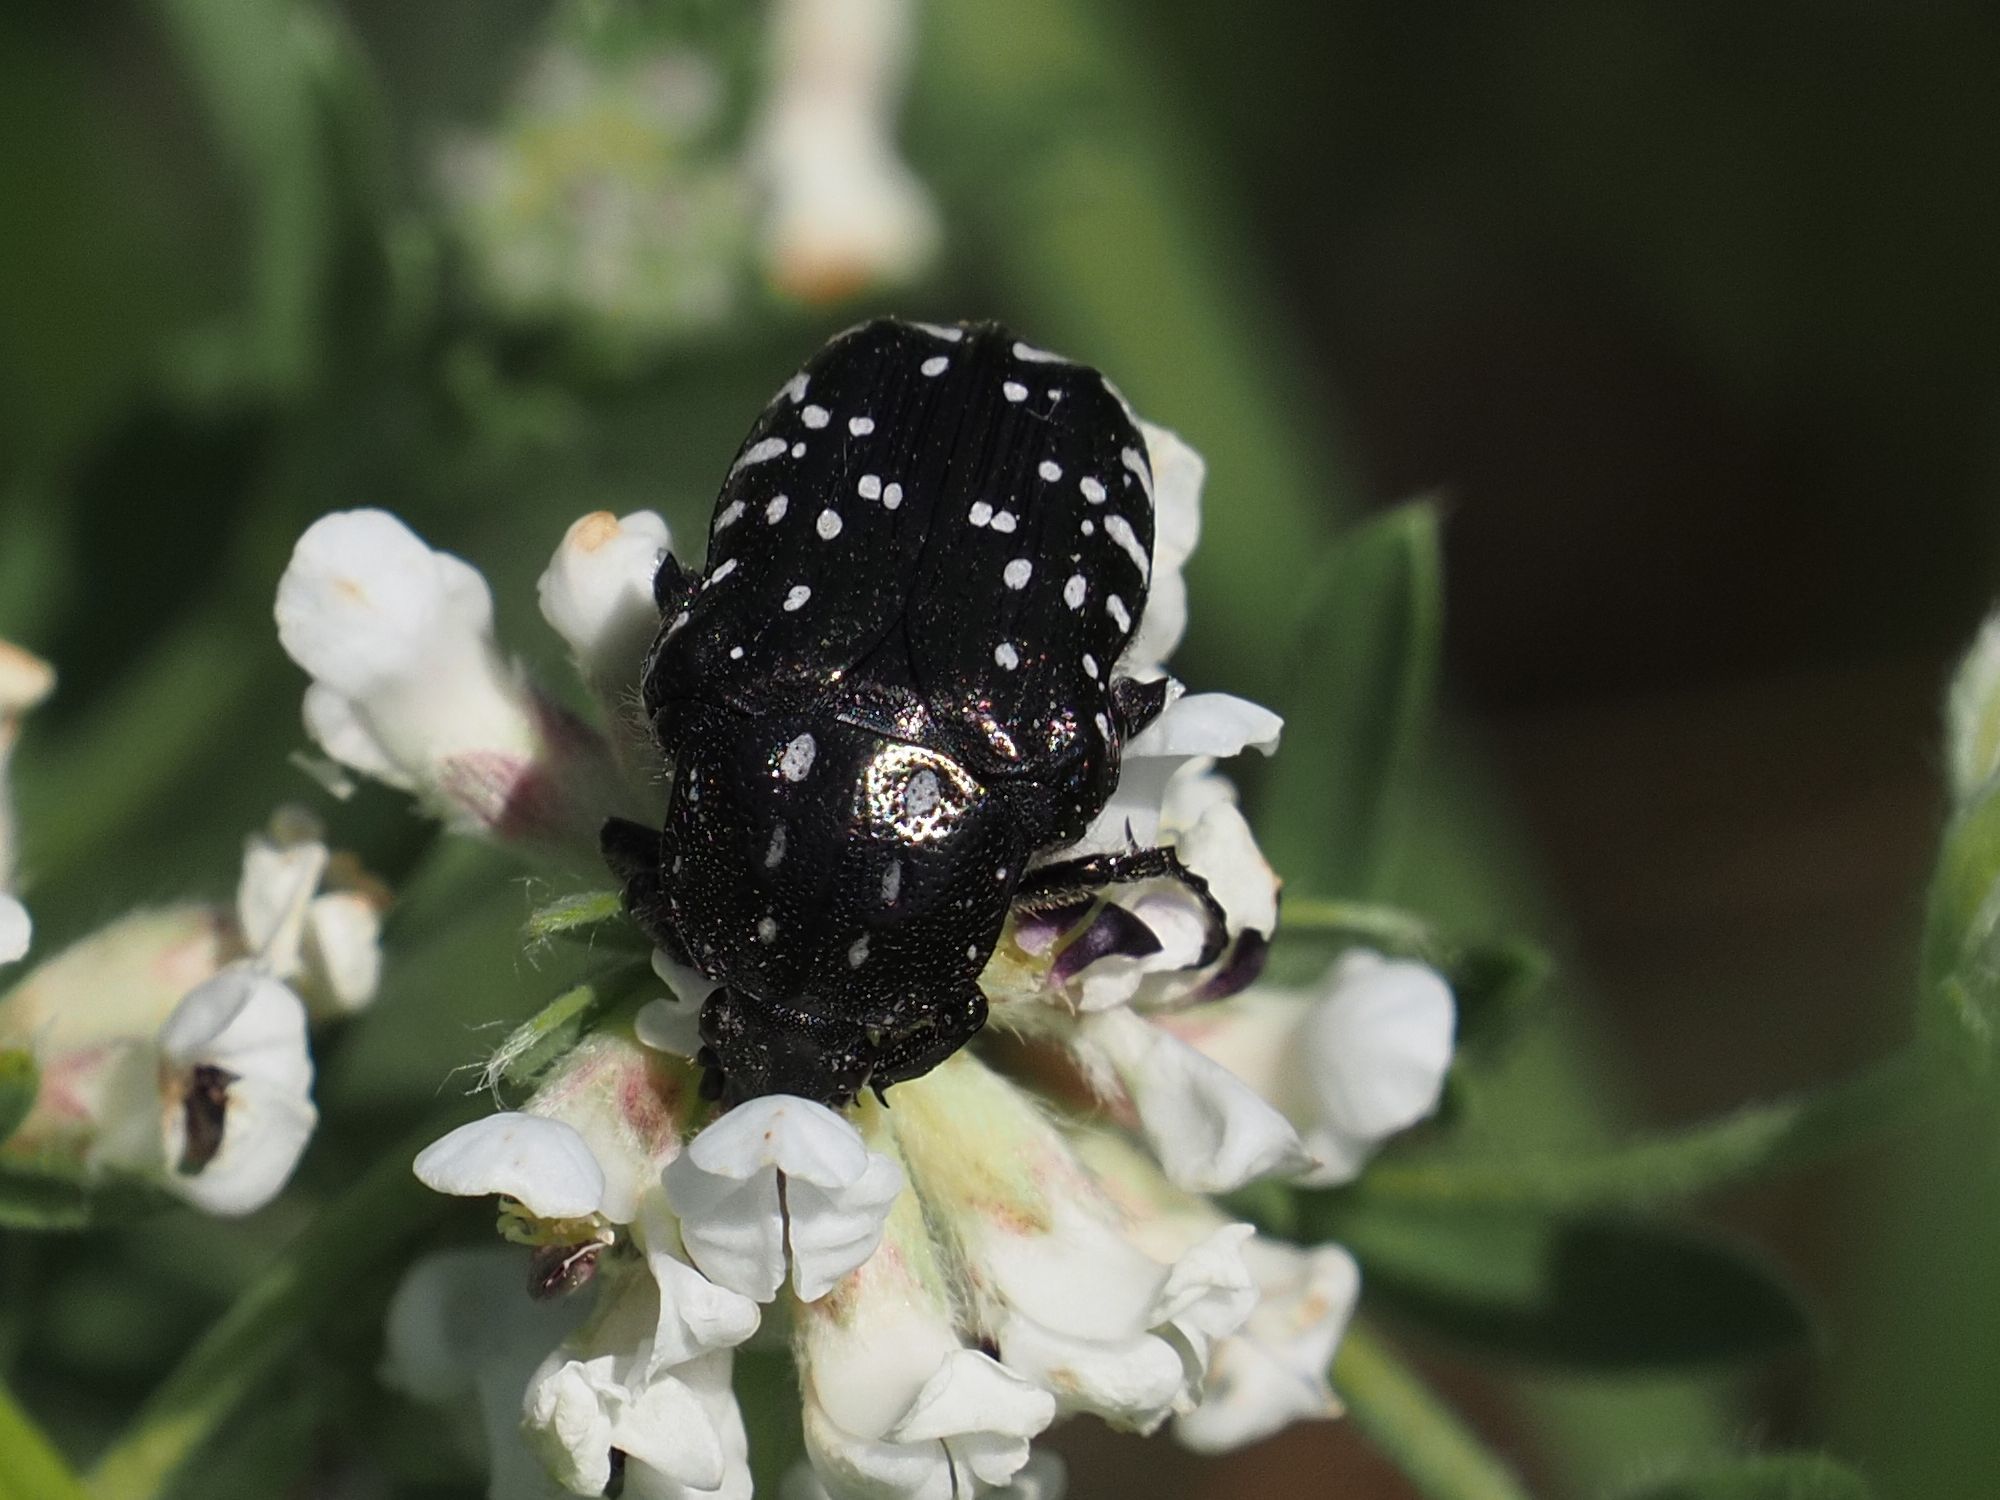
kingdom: Animalia
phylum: Arthropoda
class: Insecta
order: Coleoptera
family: Scarabaeidae
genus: Oxythyrea
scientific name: Oxythyrea funesta
